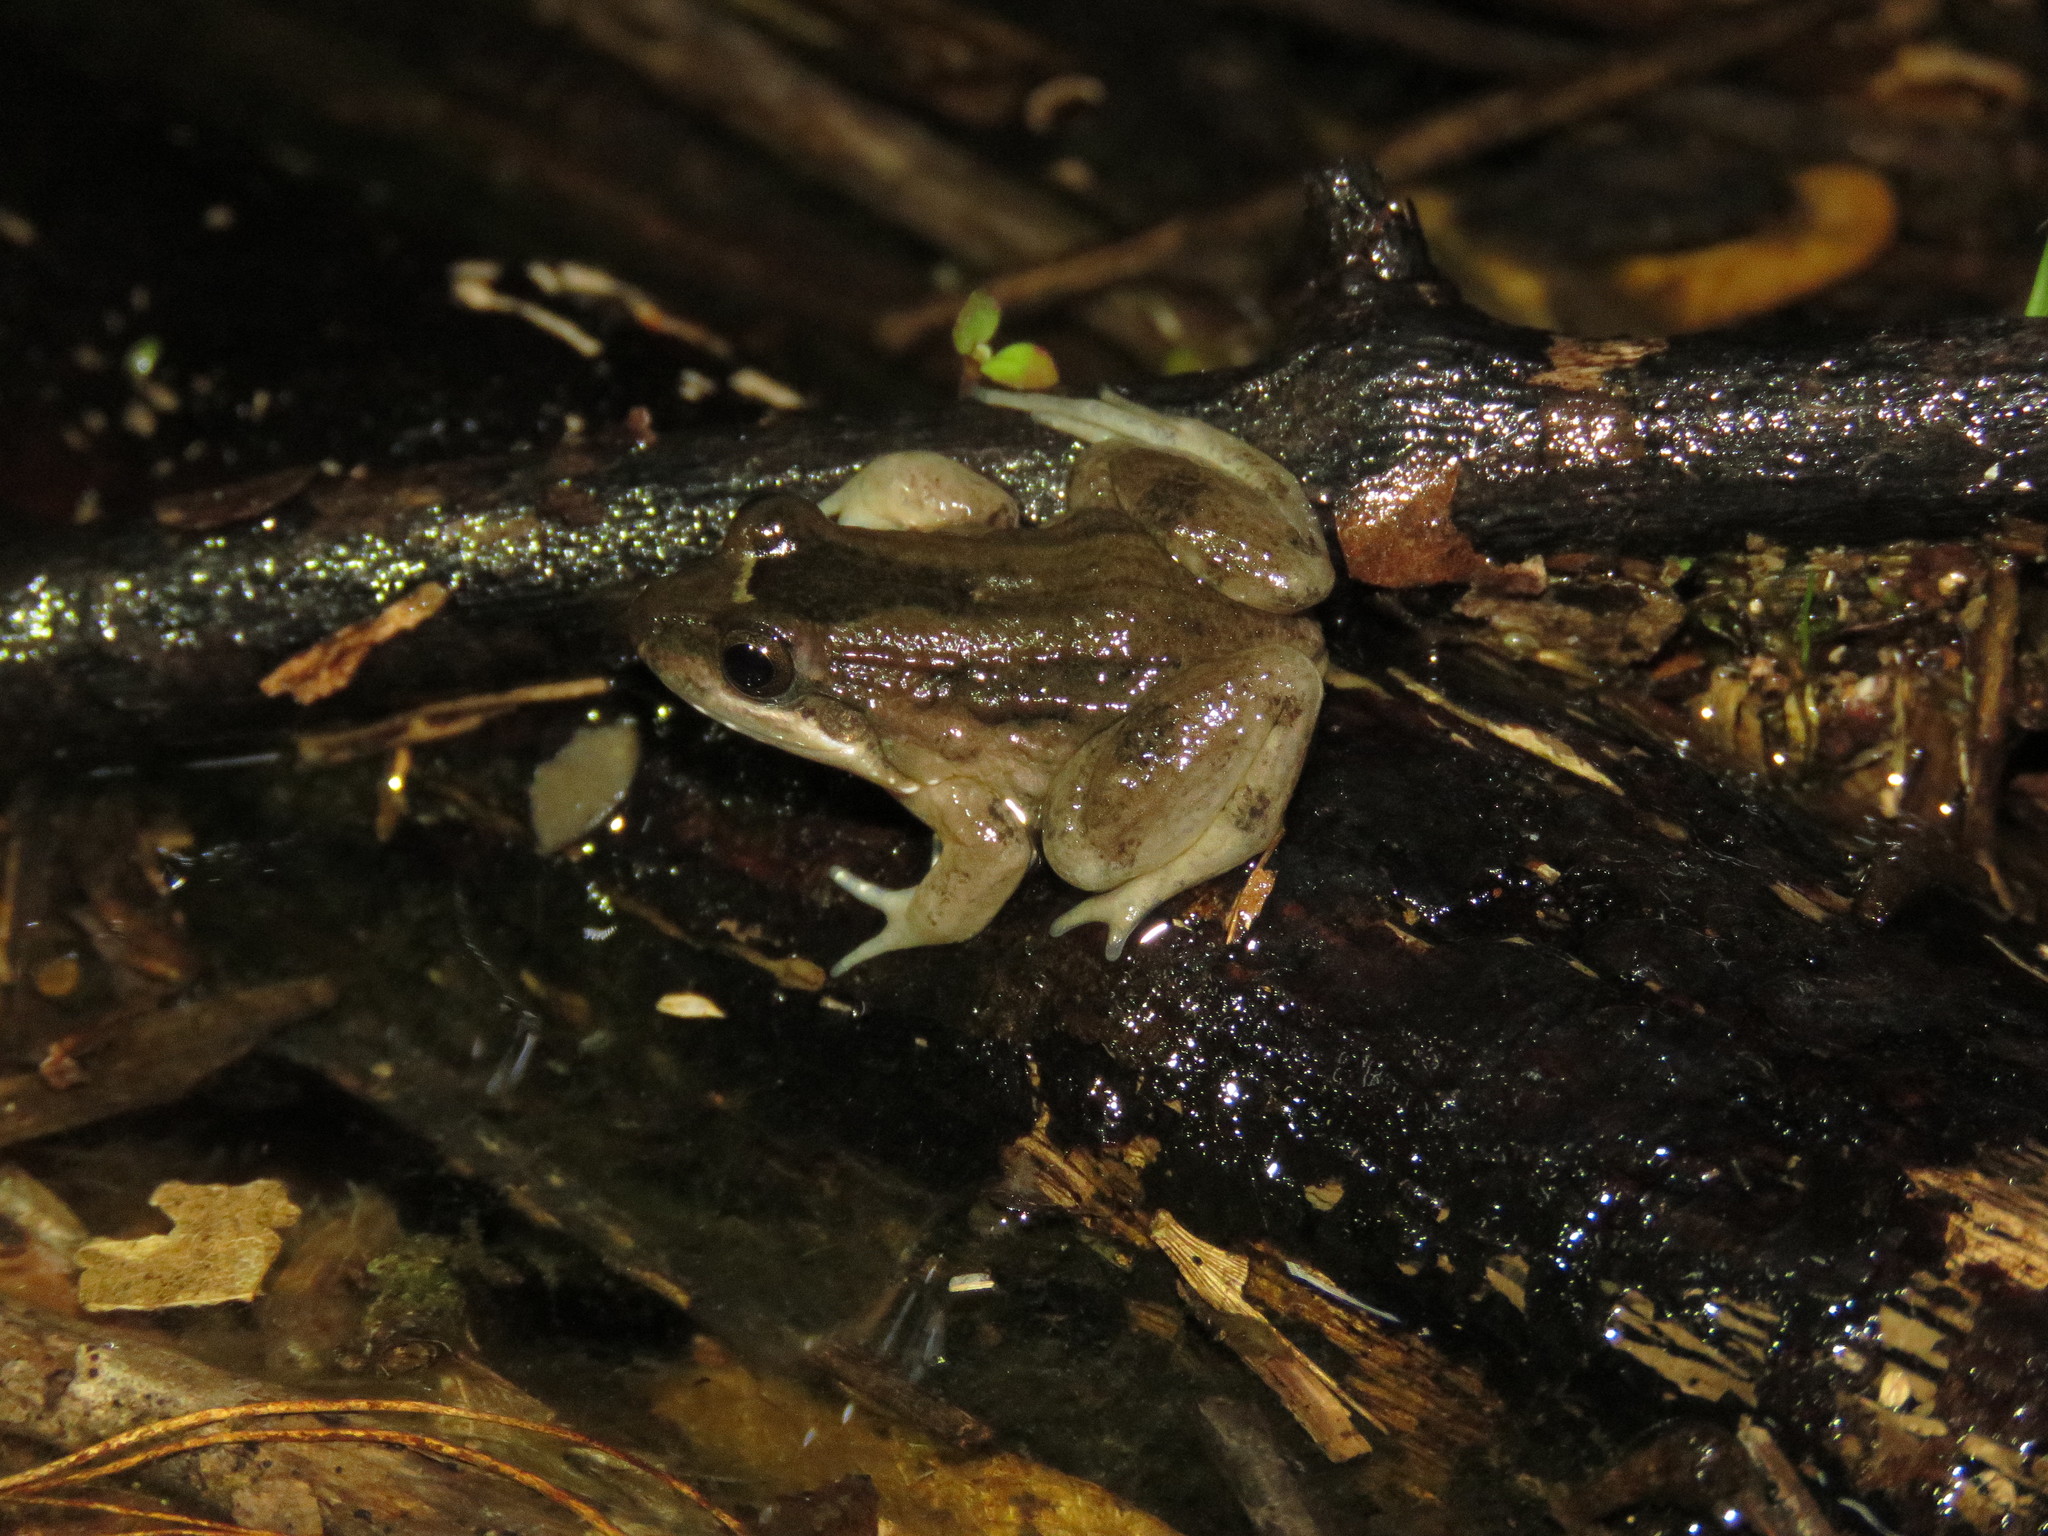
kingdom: Animalia
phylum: Chordata
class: Amphibia
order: Anura
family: Leptodactylidae
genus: Leptodactylus
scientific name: Leptodactylus petersii
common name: Peters' thin-toed frog
